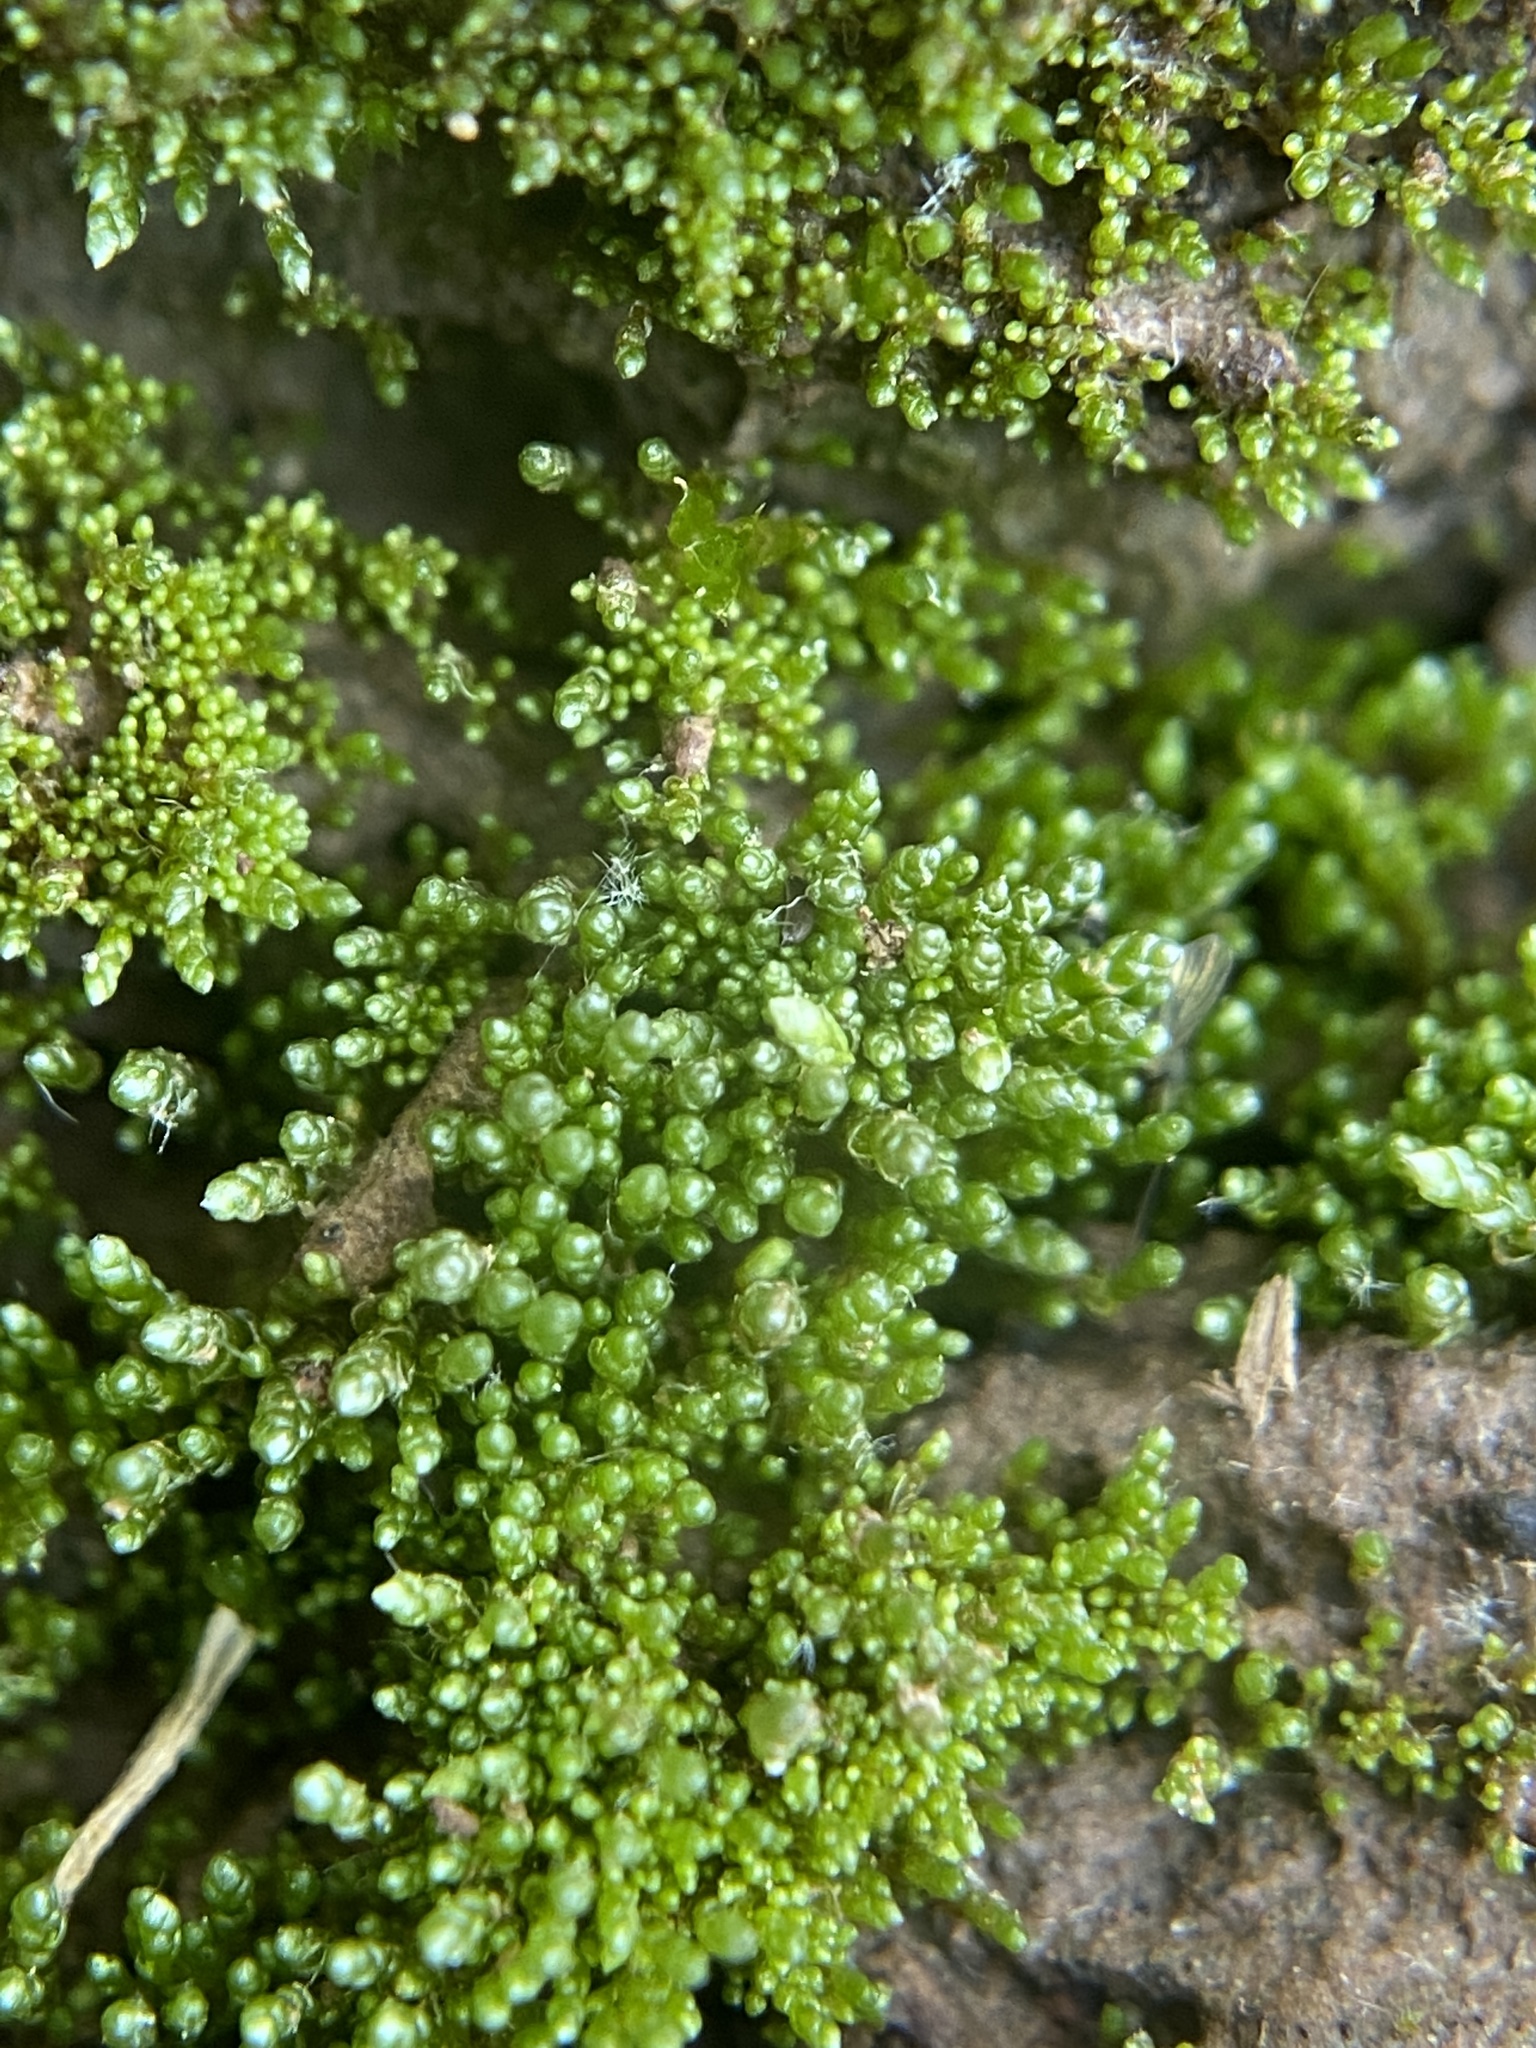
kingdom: Plantae
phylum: Bryophyta
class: Bryopsida
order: Bryales
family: Bryaceae
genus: Bryum
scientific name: Bryum argenteum
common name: Silver-moss
